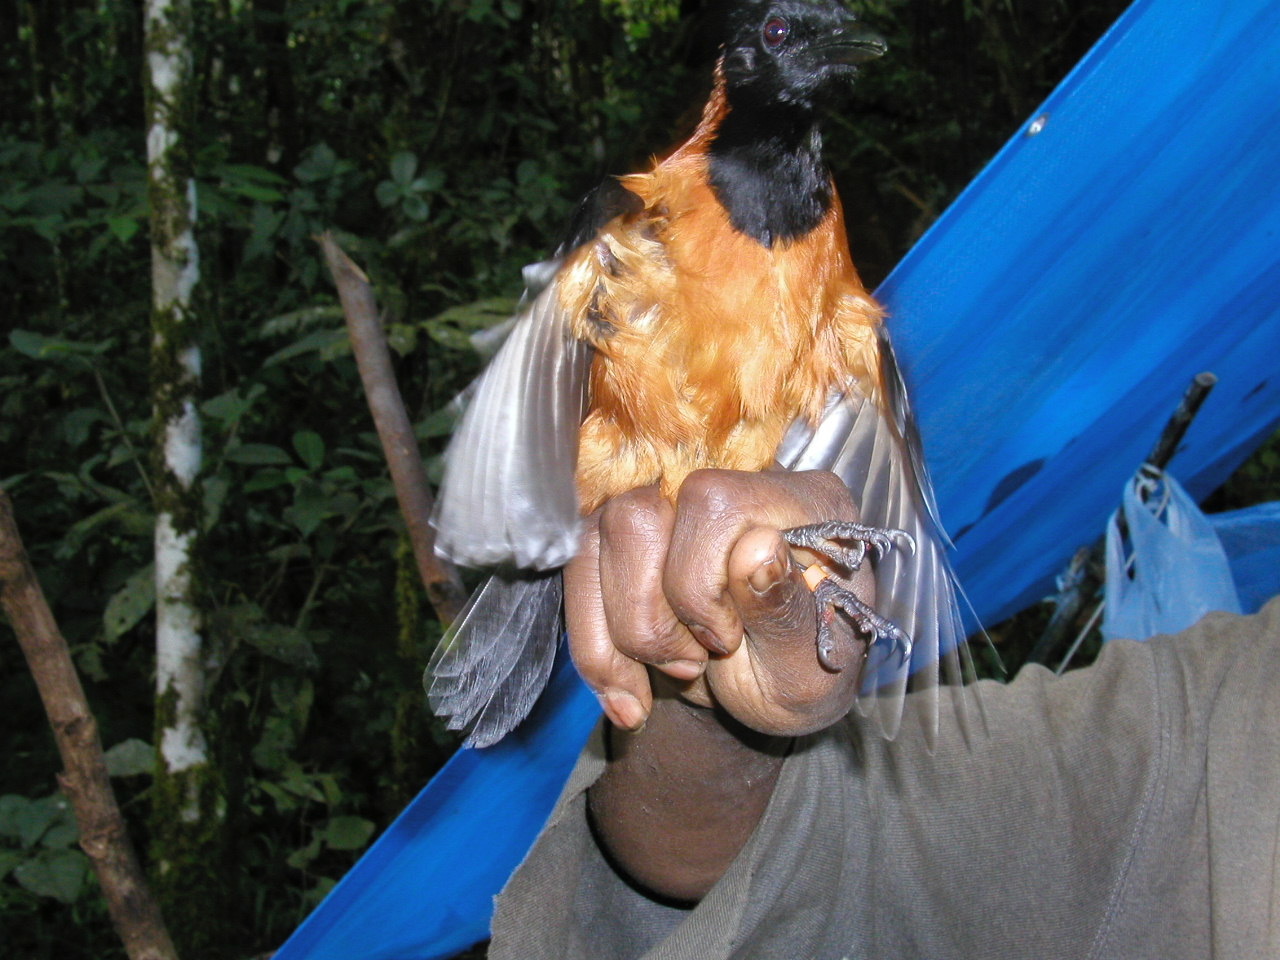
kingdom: Animalia
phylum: Chordata
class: Aves
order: Passeriformes
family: Oriolidae
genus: Pitohui
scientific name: Pitohui dichrous
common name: Hooded pitohui
